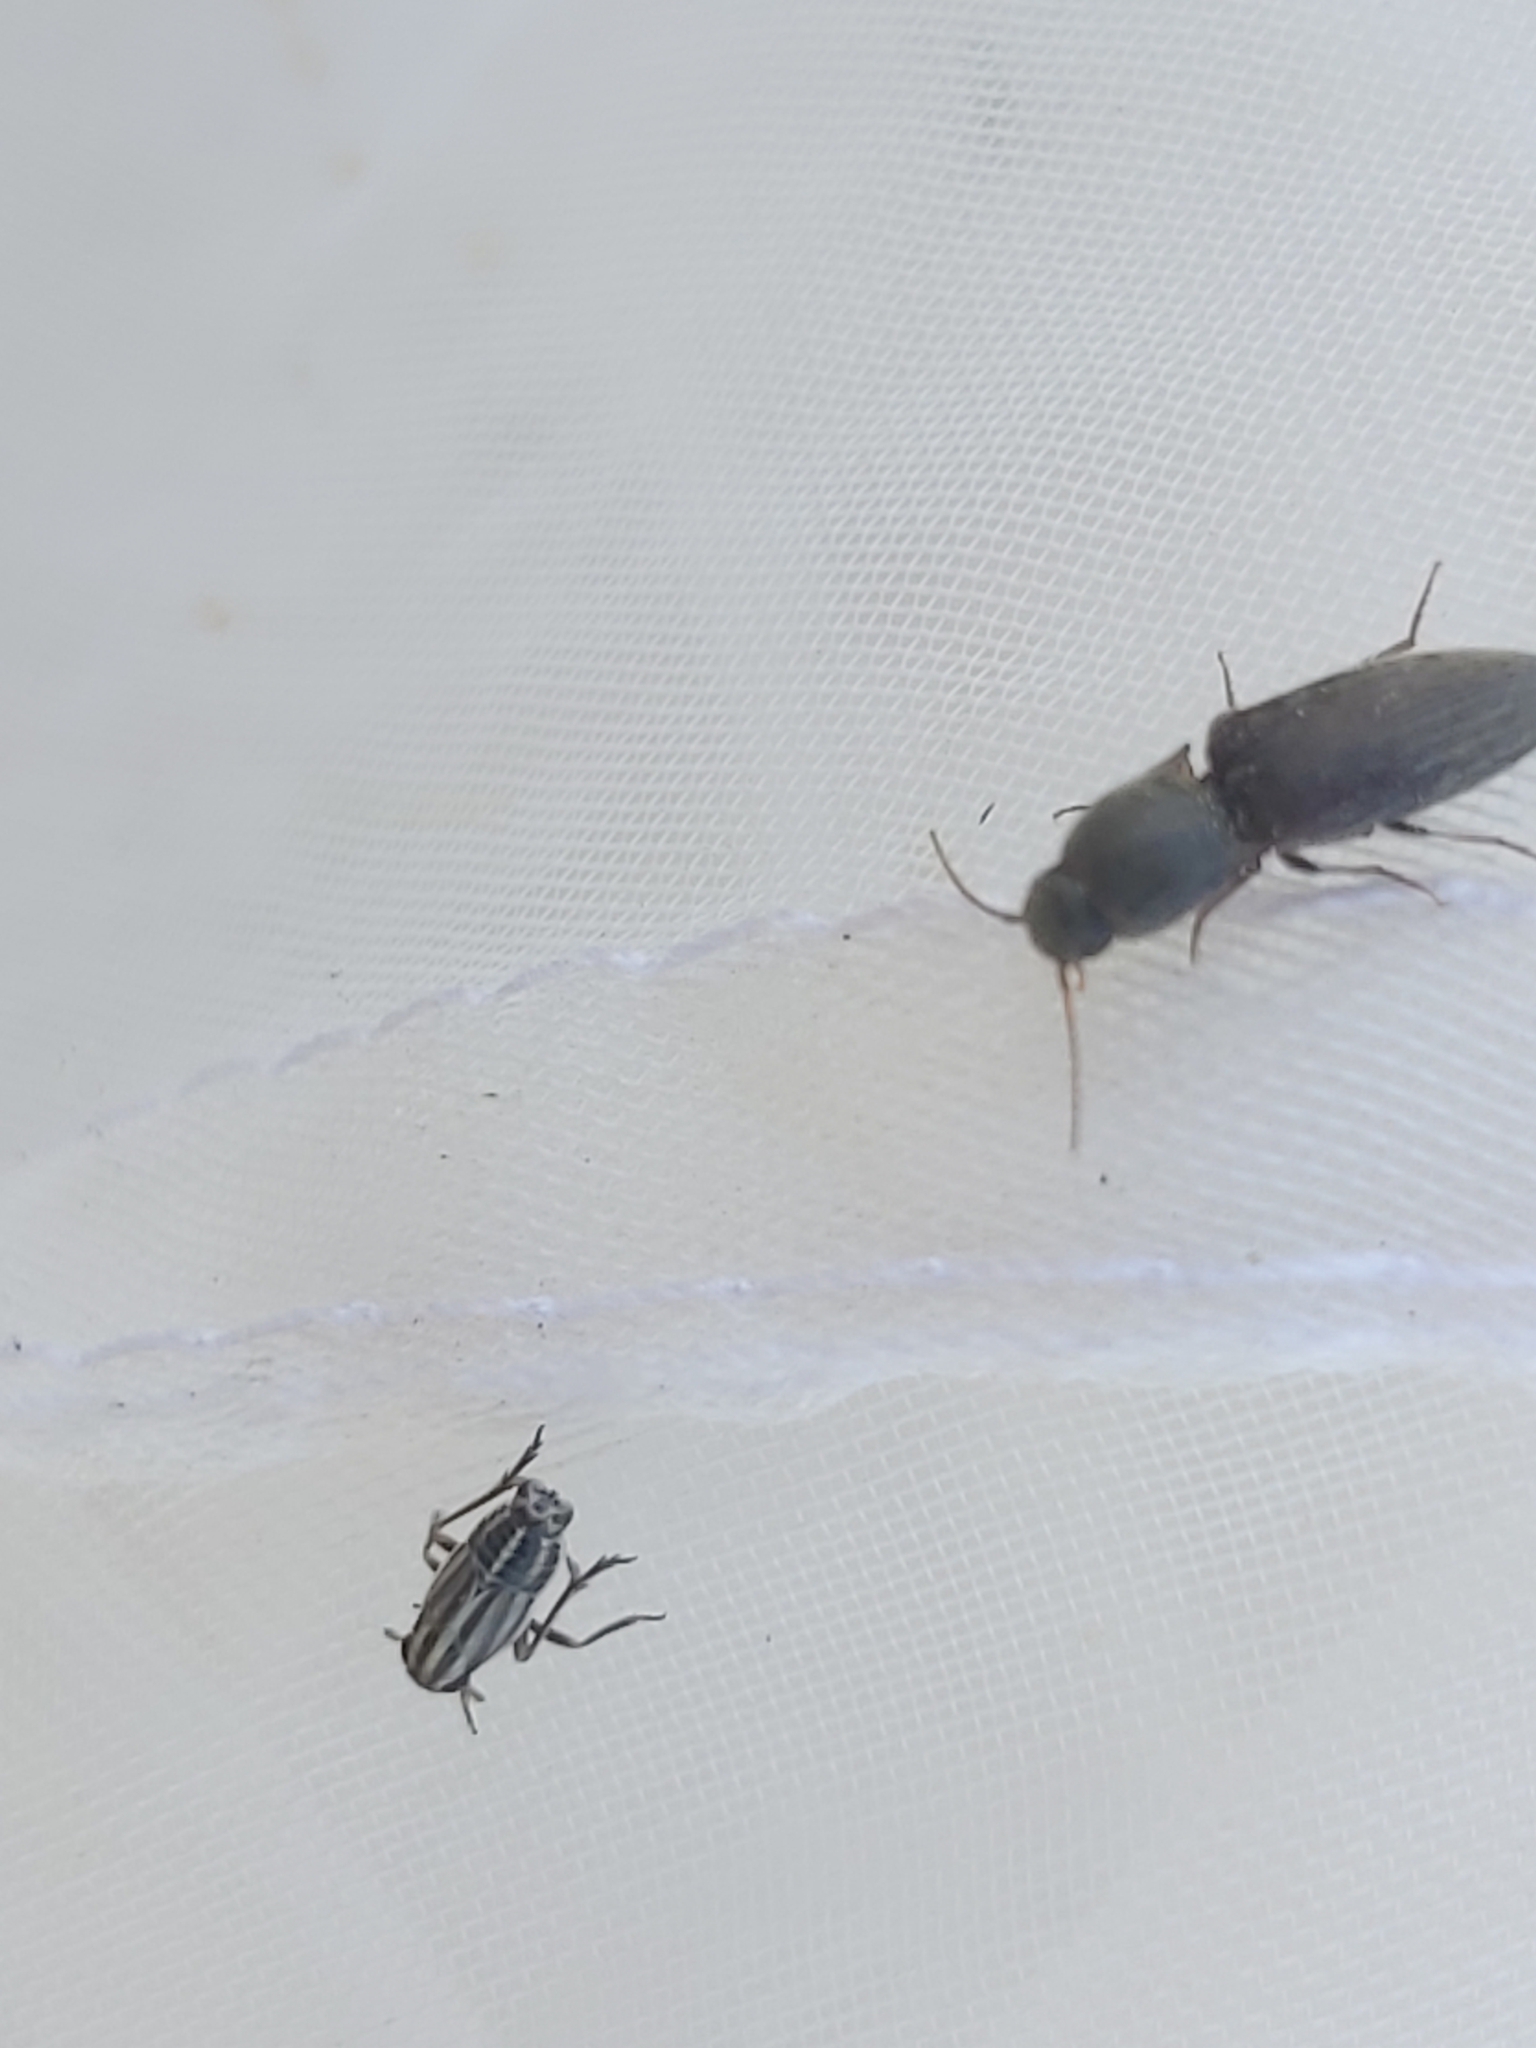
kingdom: Animalia
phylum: Arthropoda
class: Insecta
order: Hemiptera
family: Delphacidae
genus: Eurybregma
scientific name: Eurybregma nigrolineata
